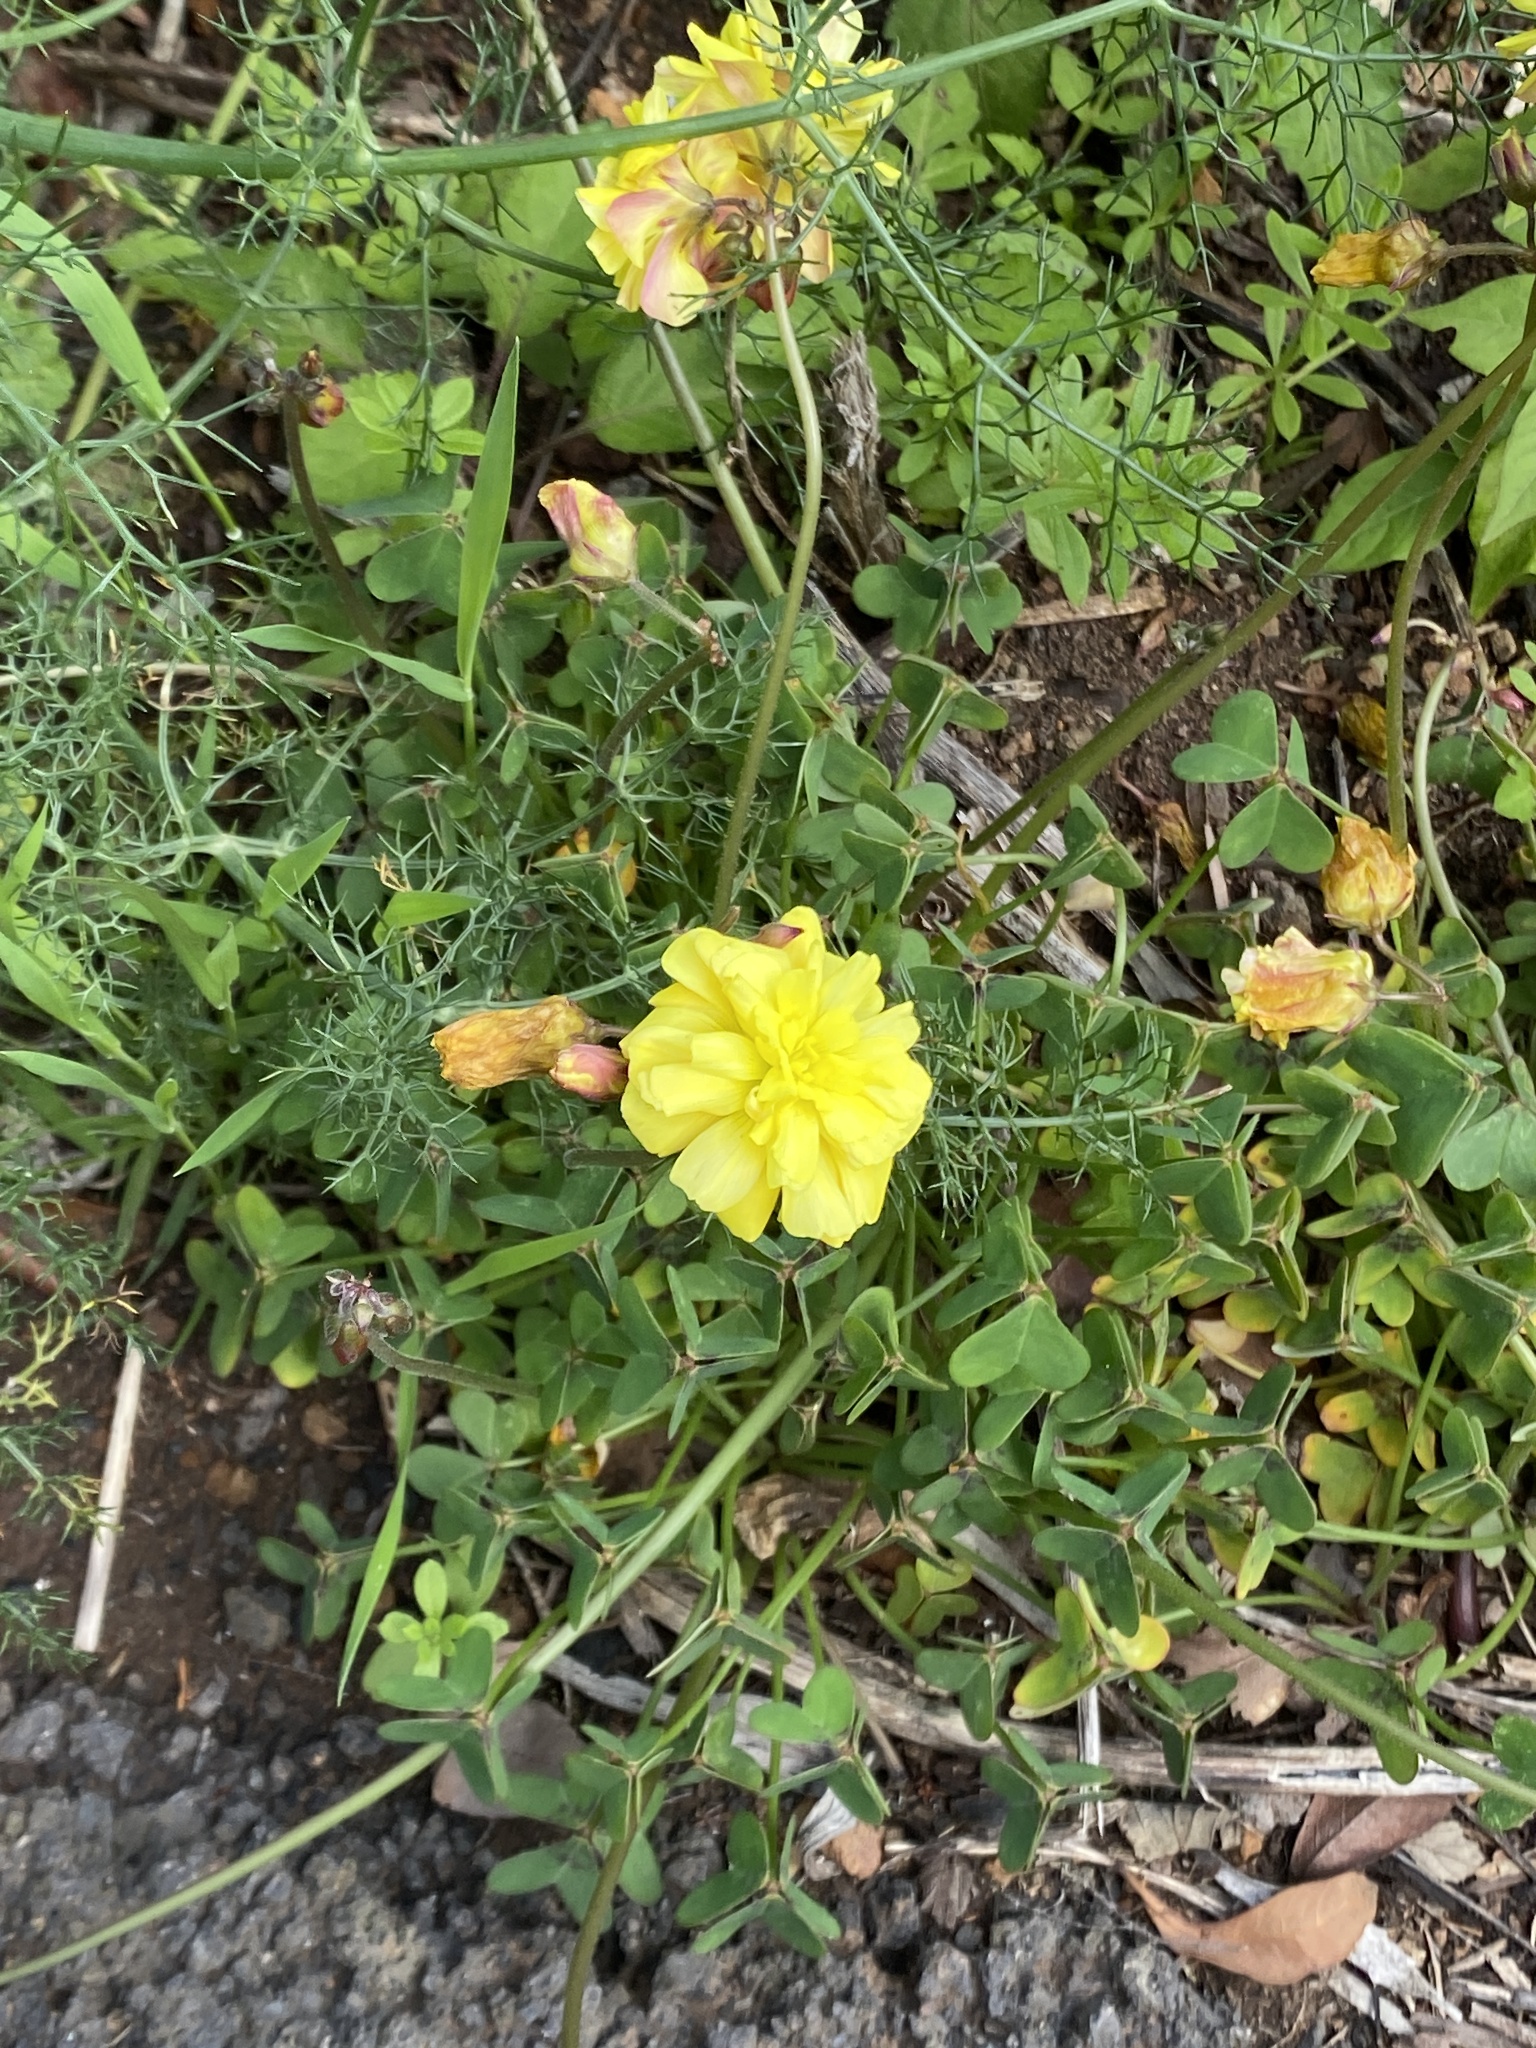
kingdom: Plantae
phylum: Tracheophyta
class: Magnoliopsida
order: Oxalidales
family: Oxalidaceae
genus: Oxalis
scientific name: Oxalis pes-caprae
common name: Bermuda-buttercup
